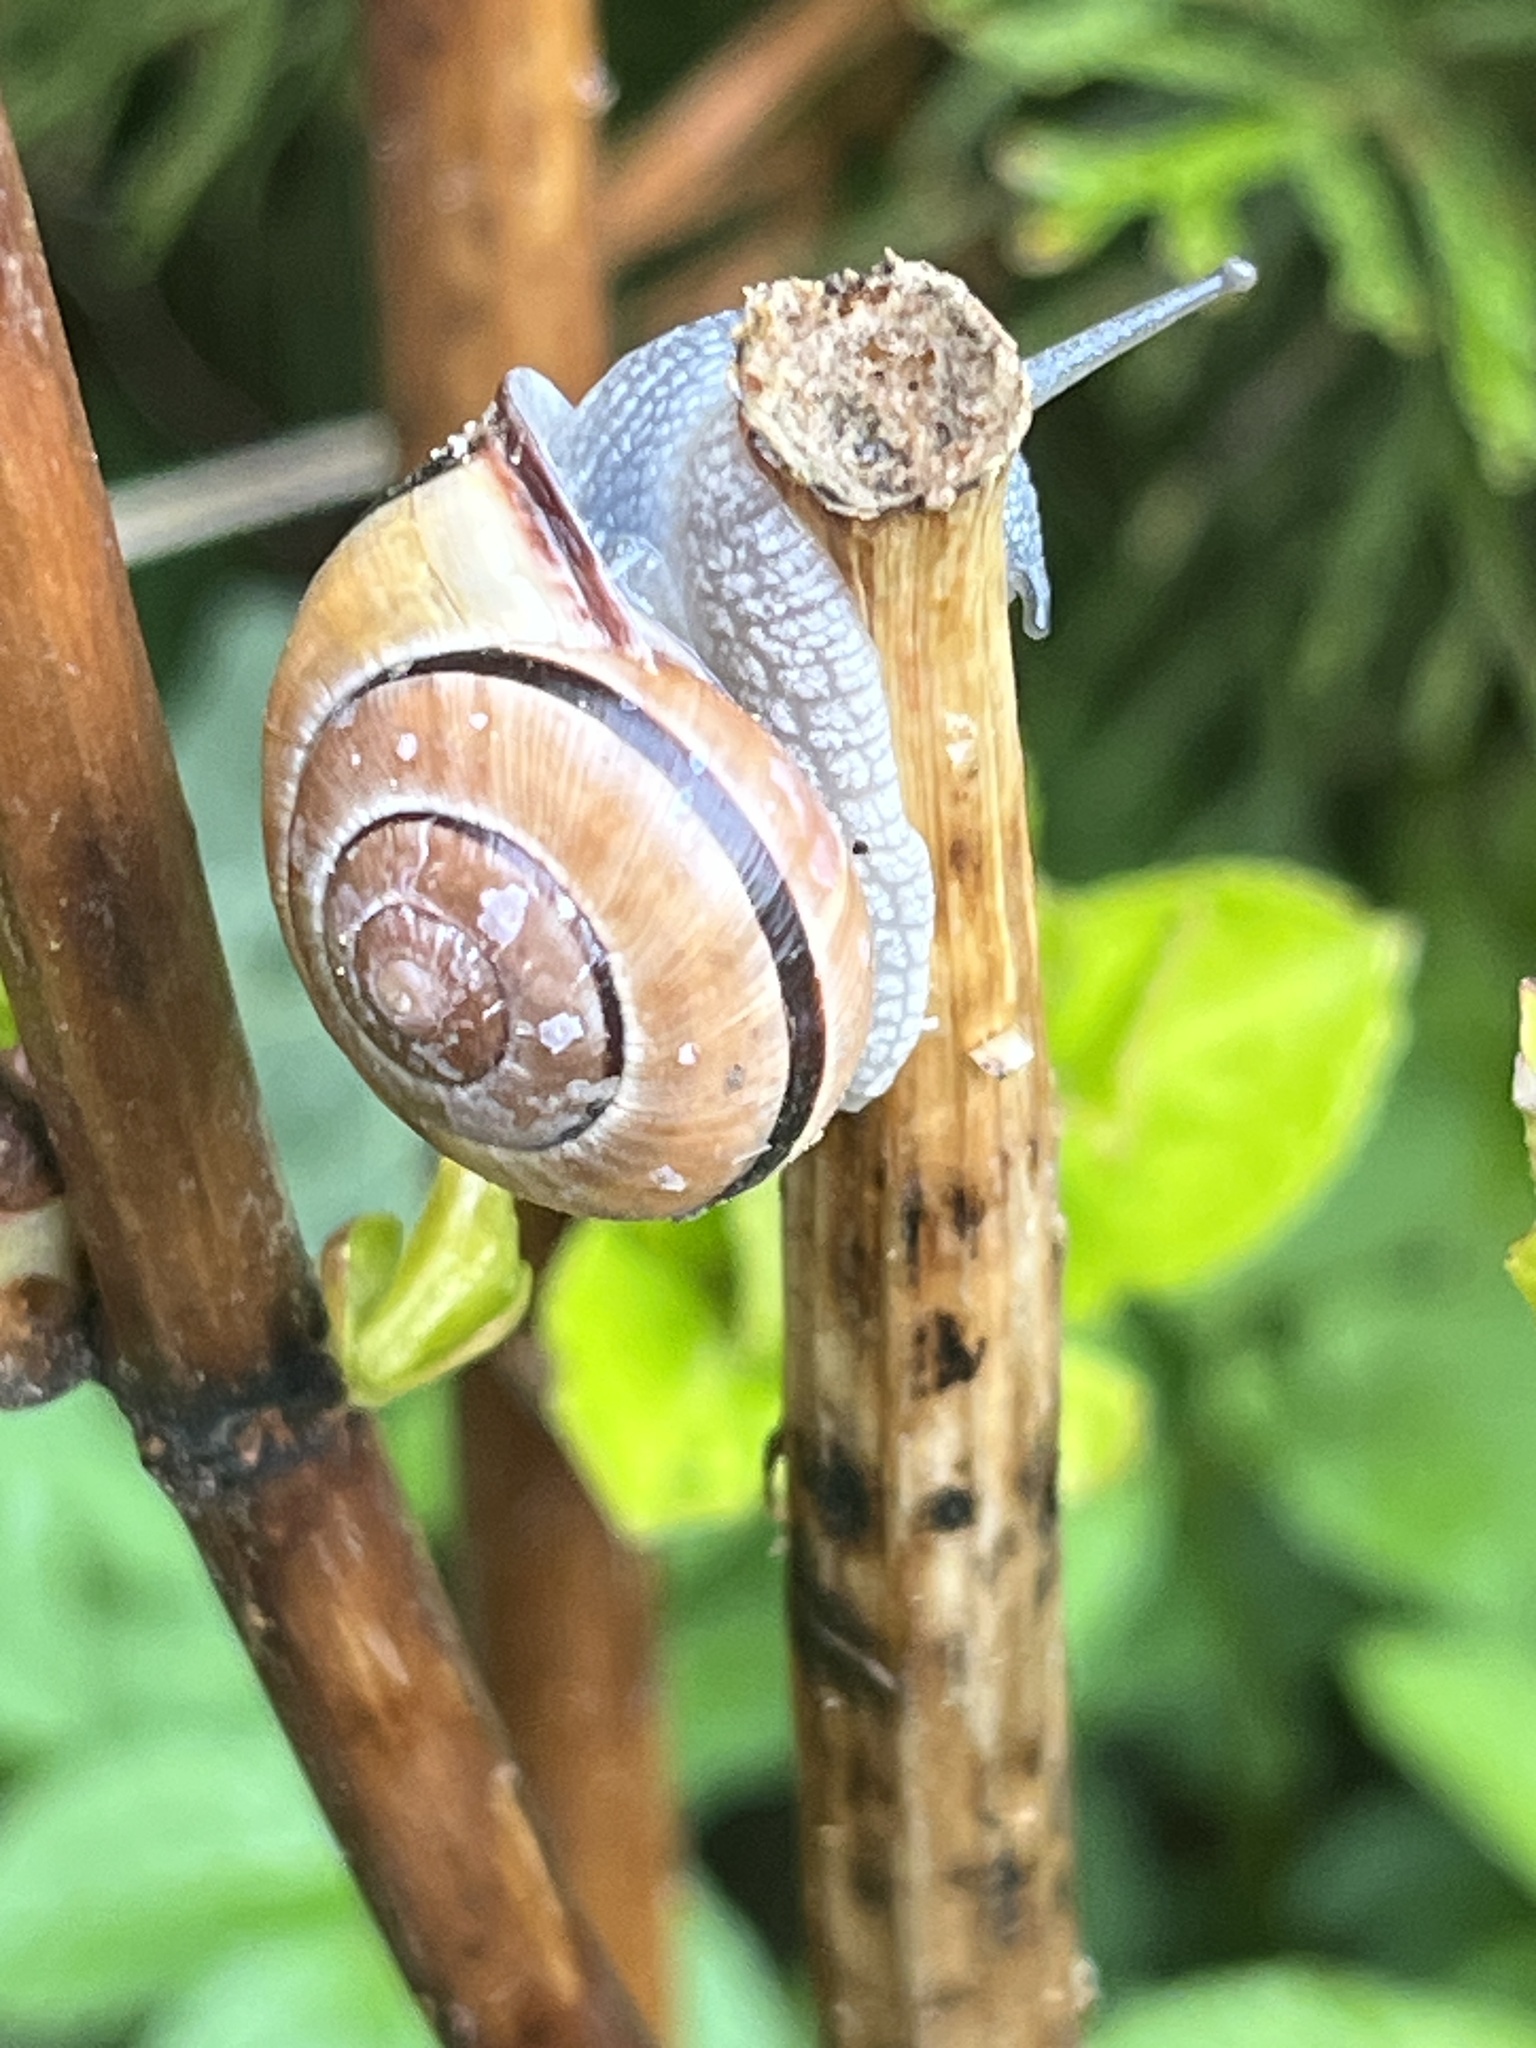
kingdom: Animalia
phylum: Mollusca
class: Gastropoda
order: Stylommatophora
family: Helicidae
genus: Cepaea
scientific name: Cepaea nemoralis
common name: Grovesnail
